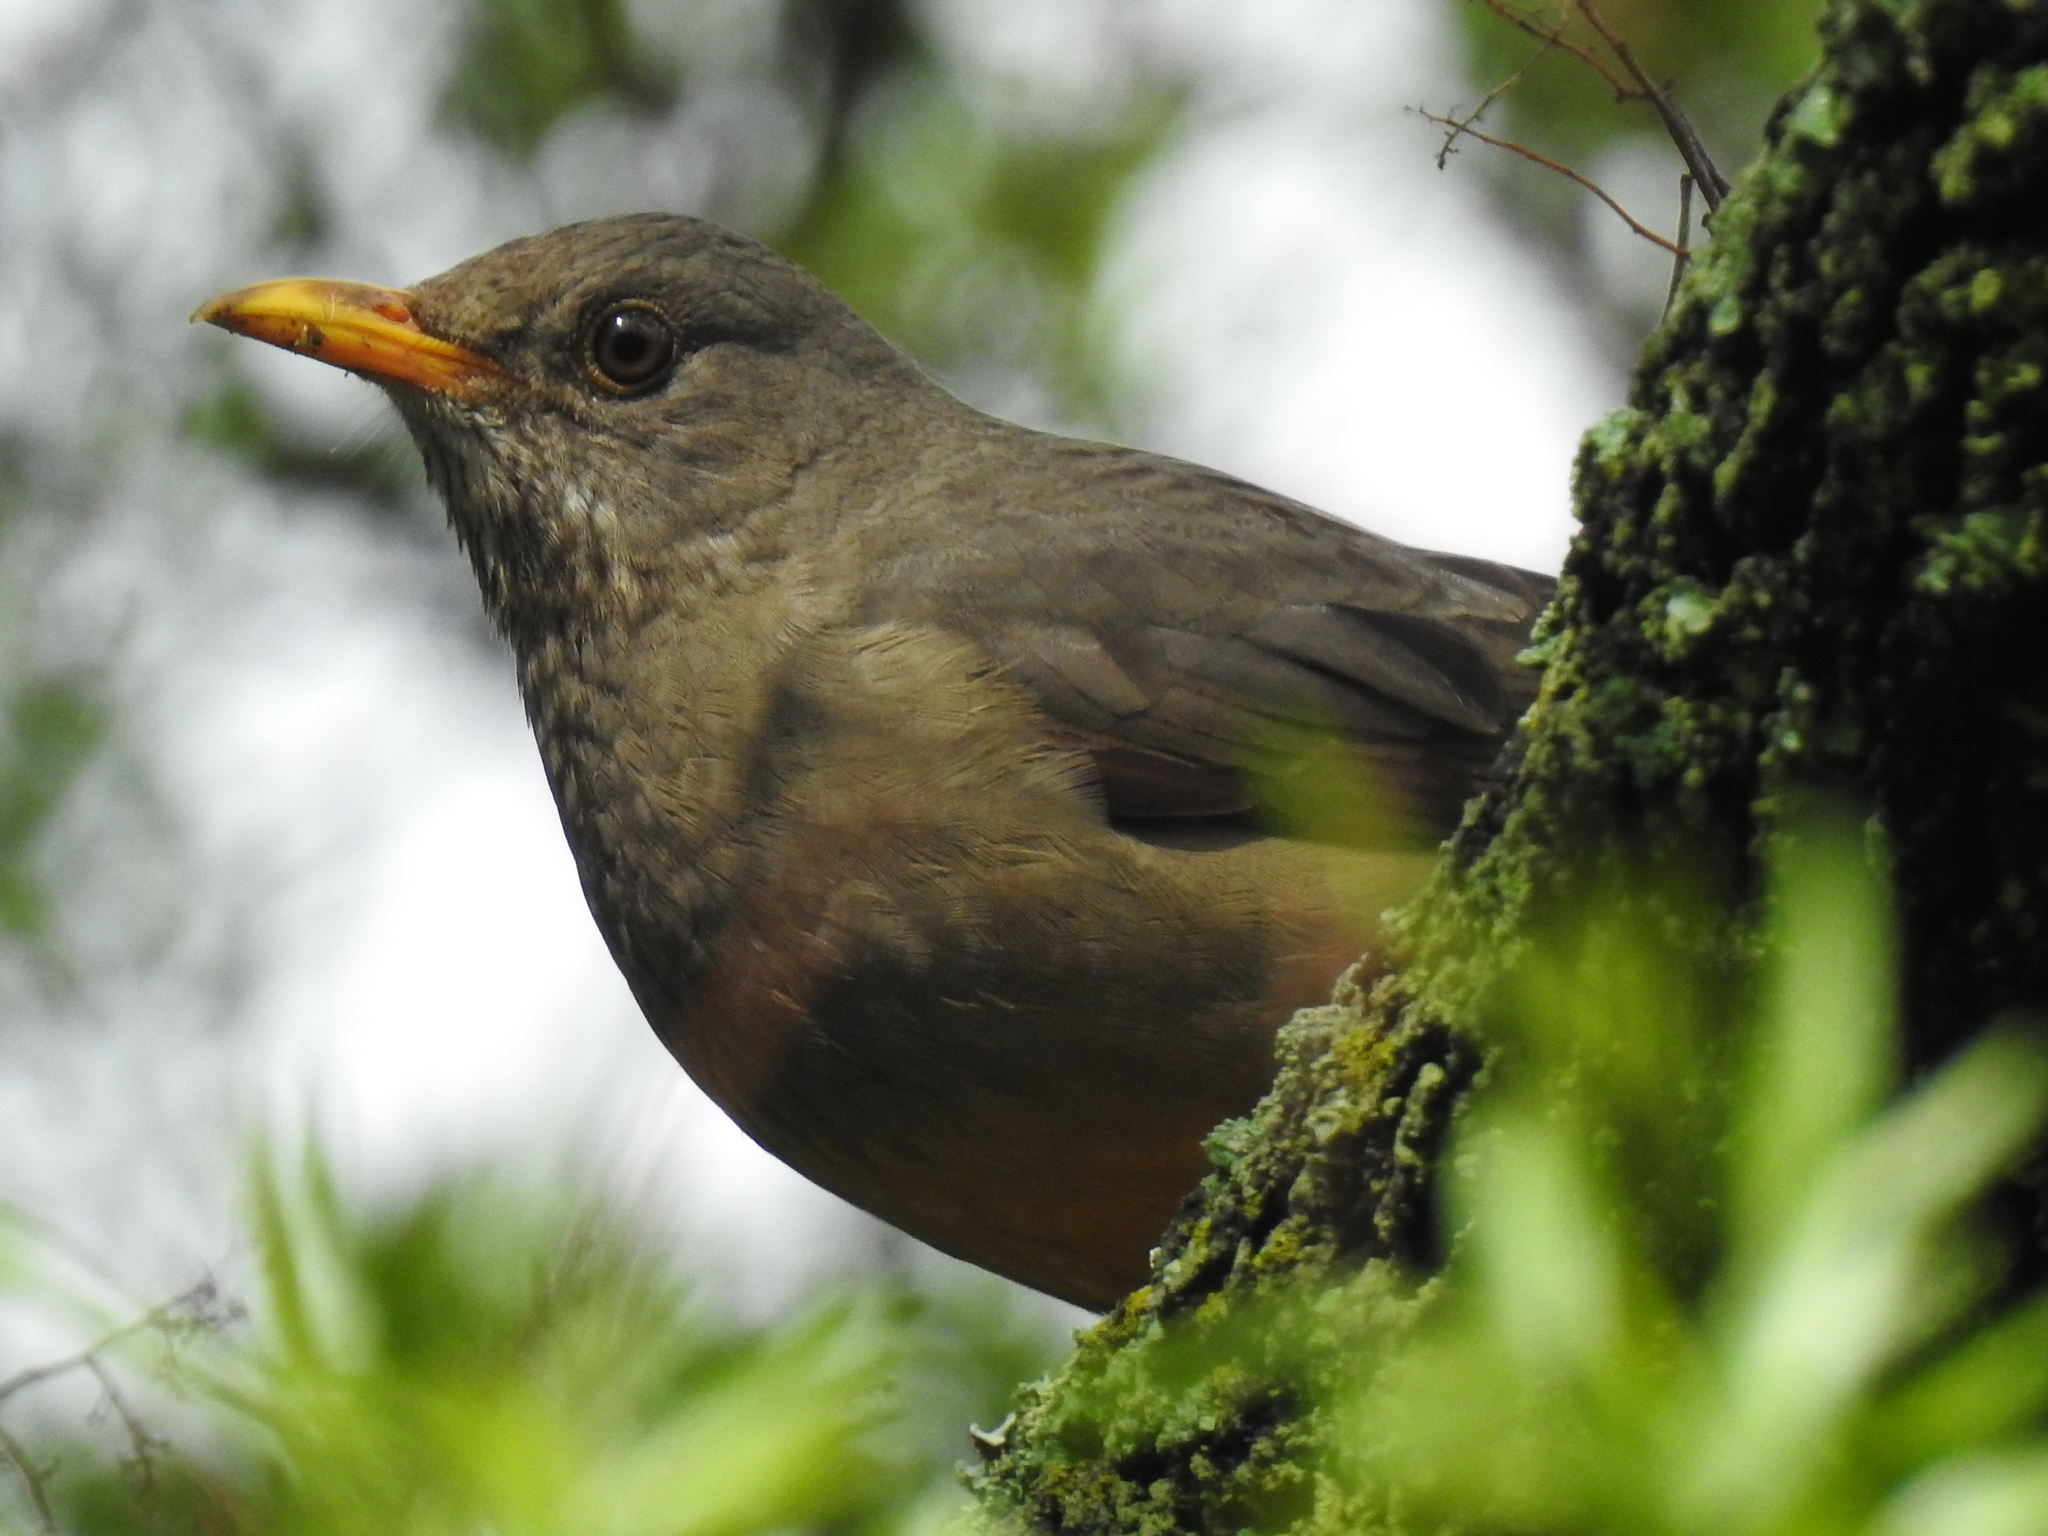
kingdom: Animalia
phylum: Chordata
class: Aves
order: Passeriformes
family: Turdidae
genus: Turdus
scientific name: Turdus smithi
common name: Karoo thrush
